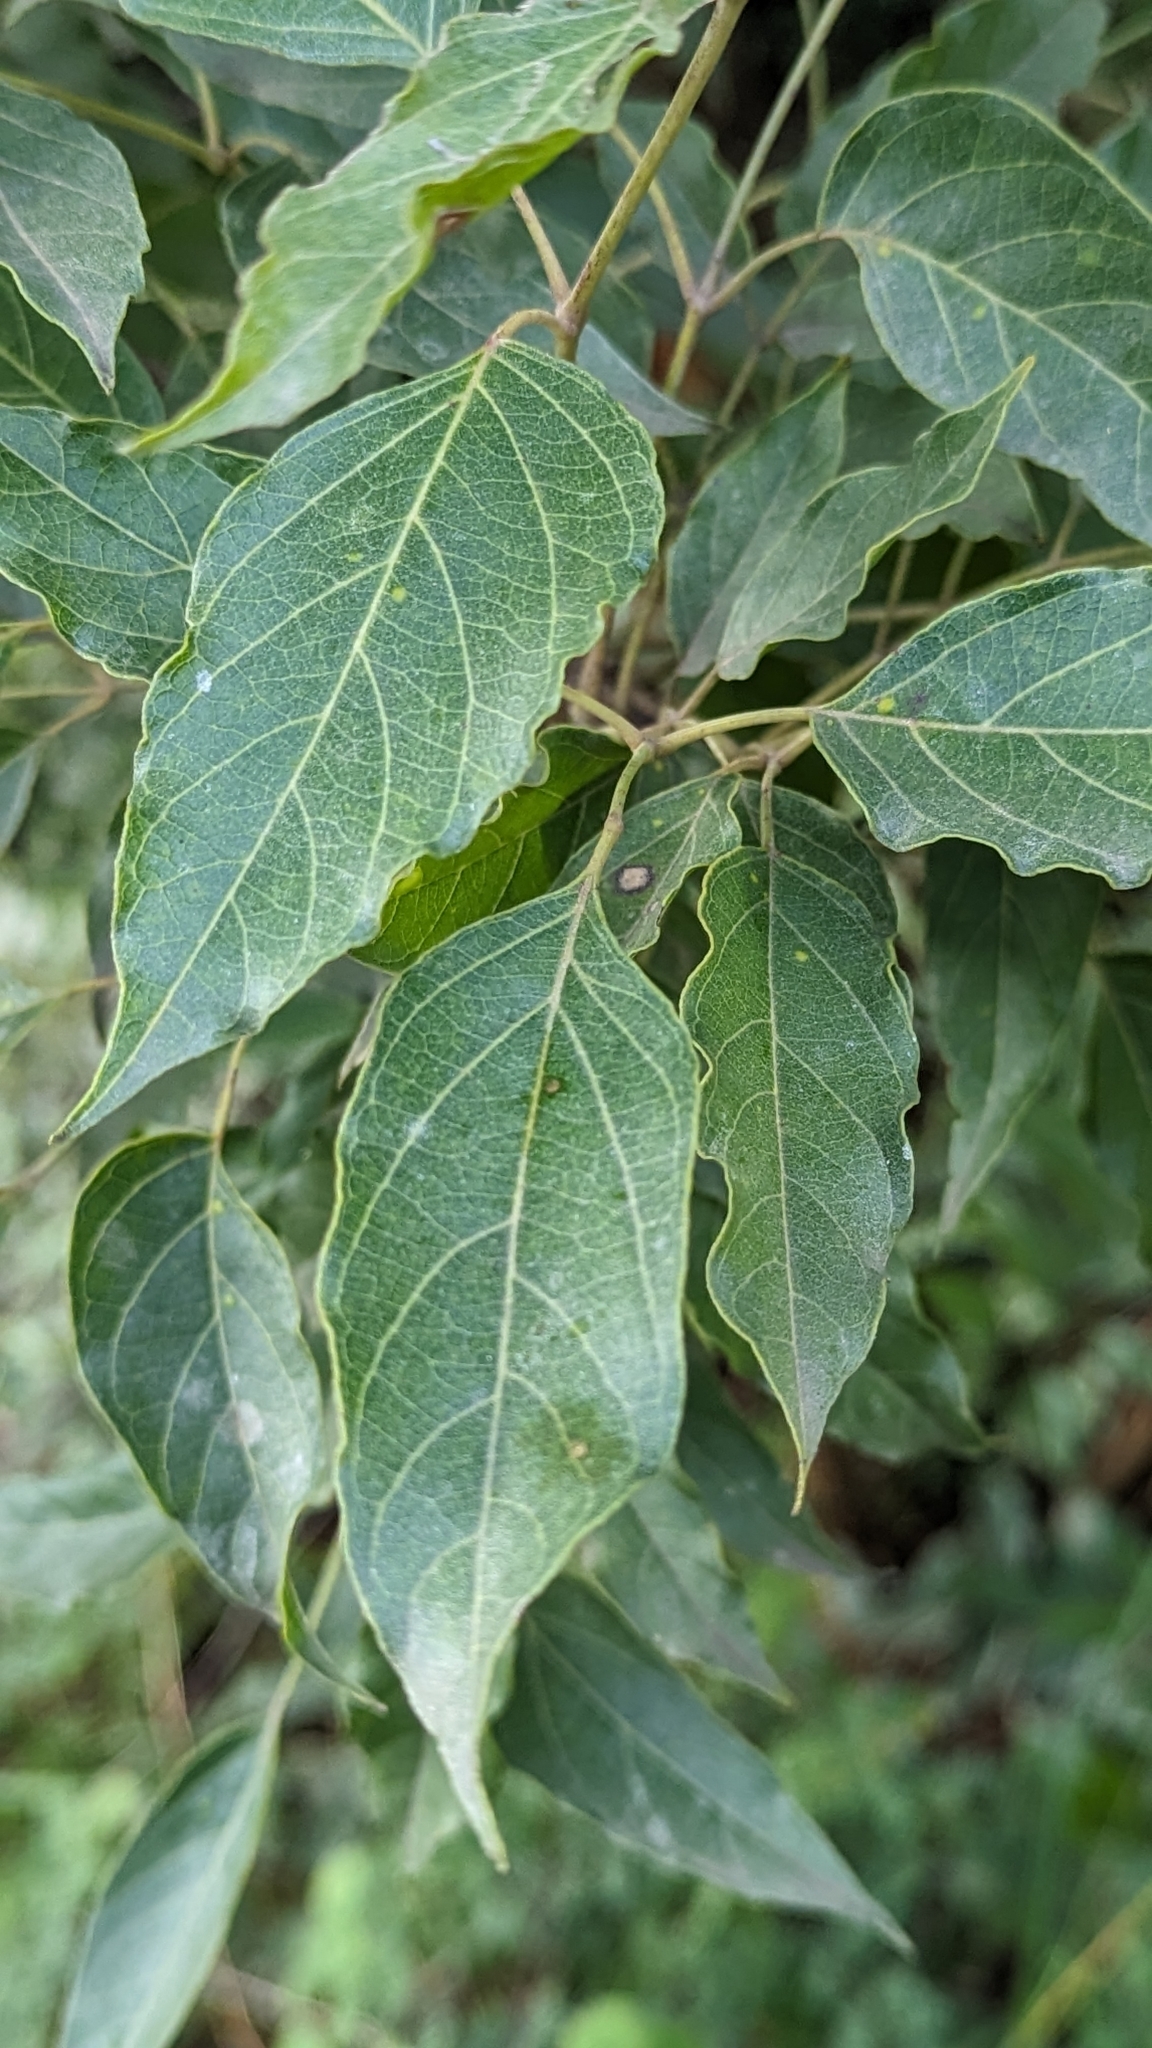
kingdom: Plantae
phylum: Tracheophyta
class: Magnoliopsida
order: Lamiales
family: Bignoniaceae
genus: Dolichandrone
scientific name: Dolichandrone atrovirens
